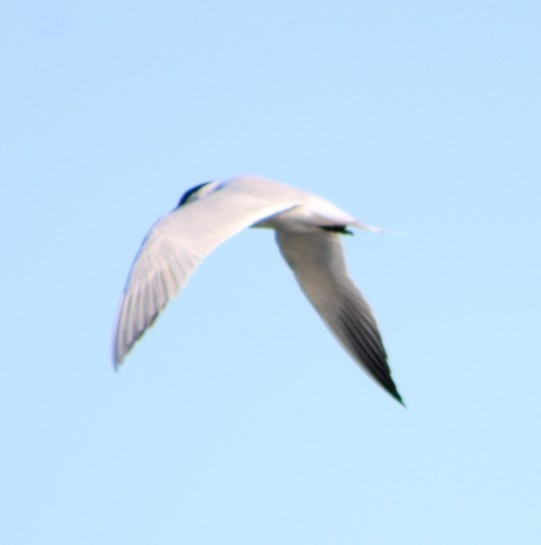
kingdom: Animalia
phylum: Chordata
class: Aves
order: Charadriiformes
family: Laridae
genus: Hydroprogne
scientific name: Hydroprogne caspia
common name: Caspian tern
